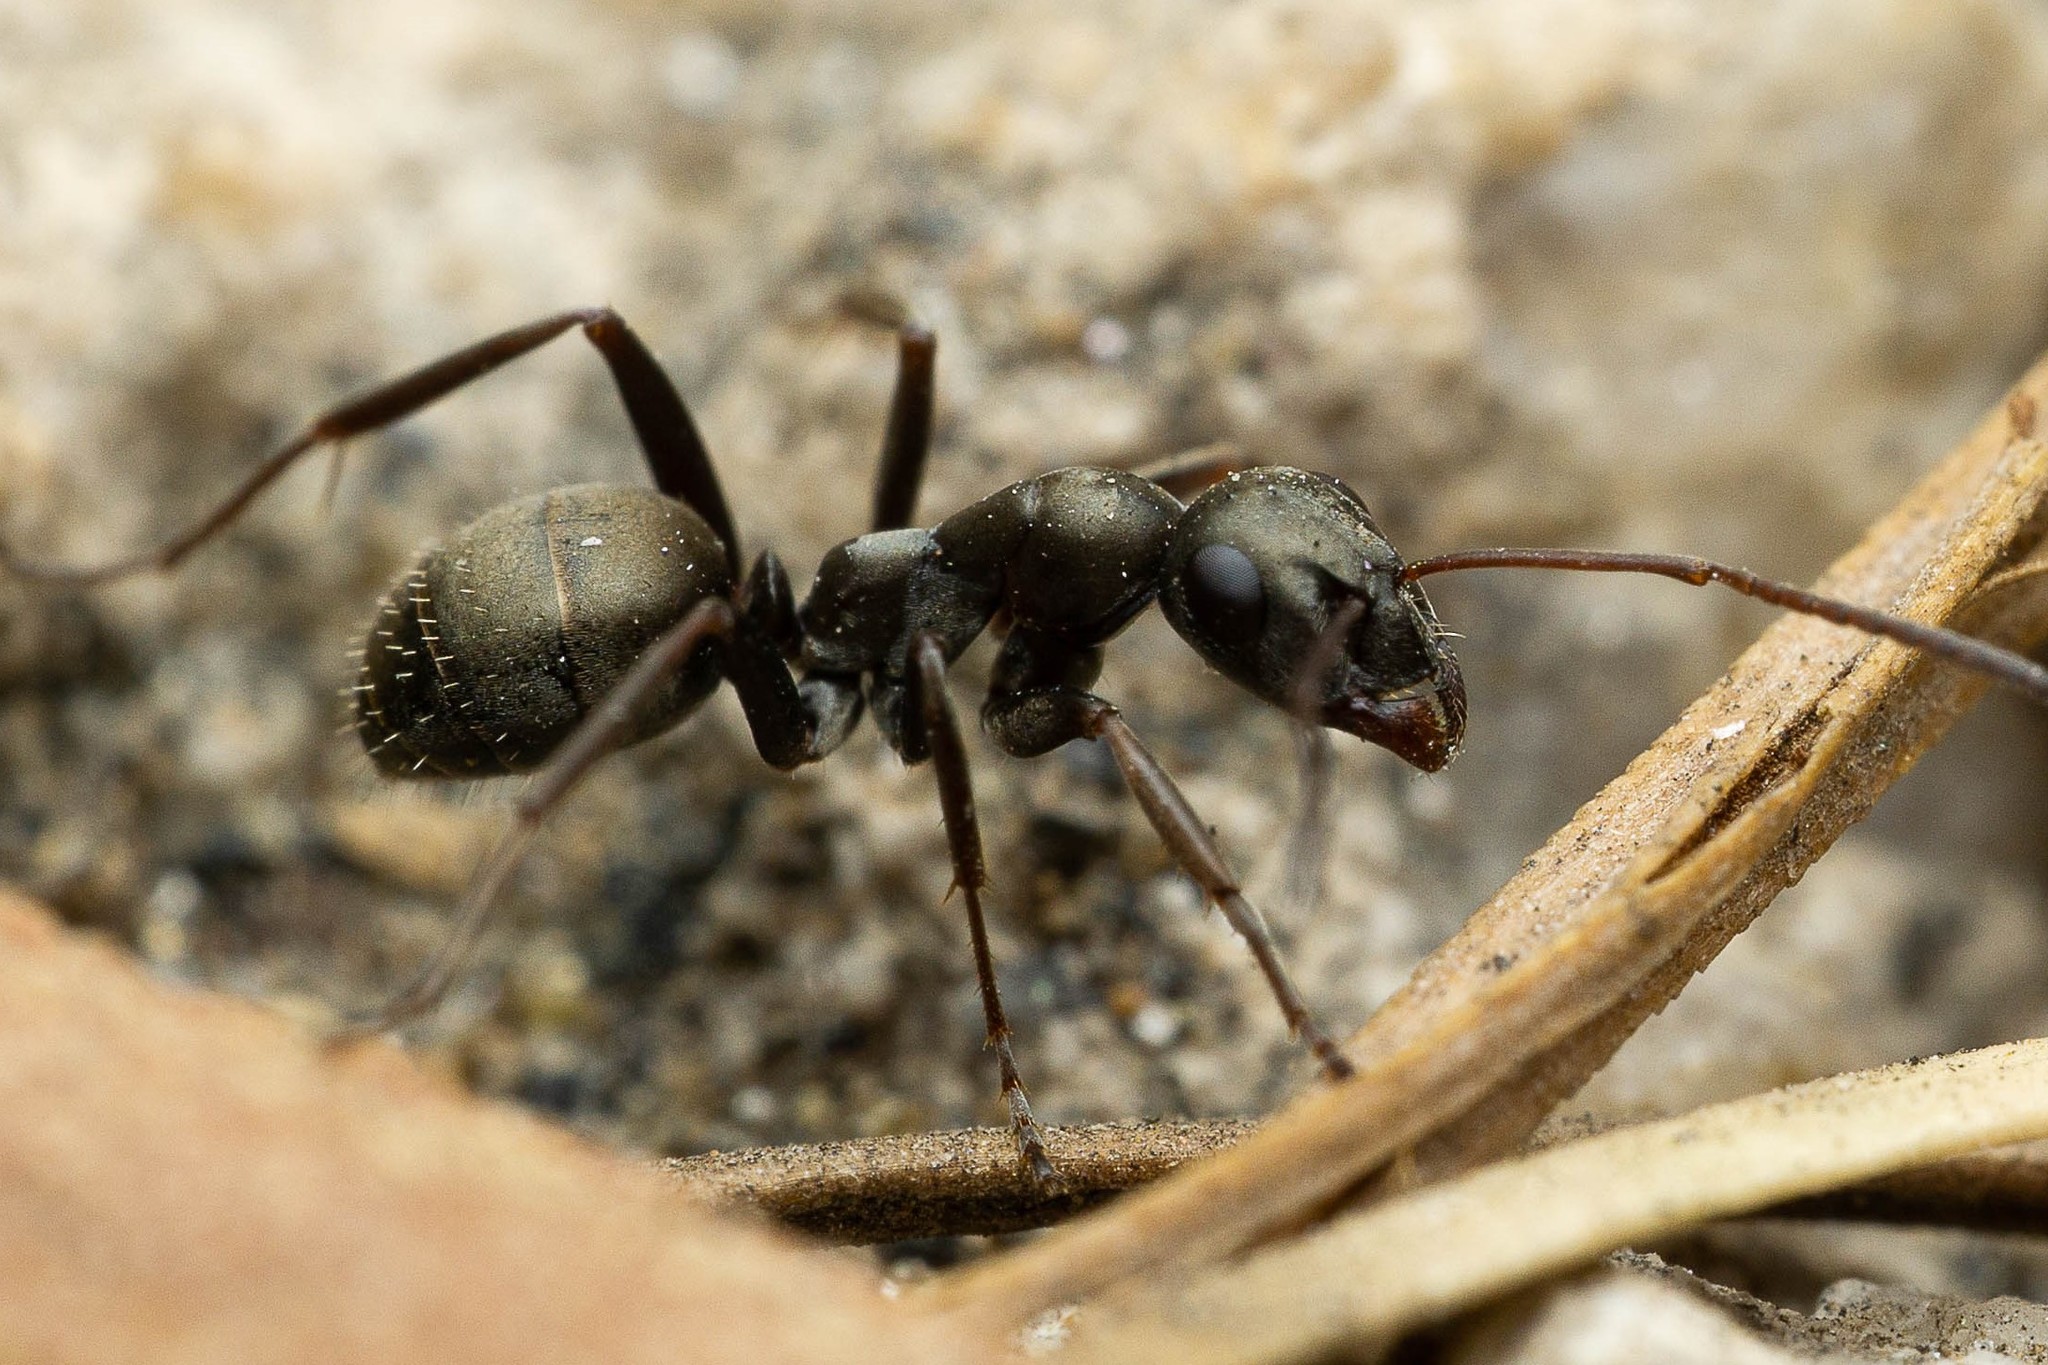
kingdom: Animalia
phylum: Arthropoda
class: Insecta
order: Hymenoptera
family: Formicidae
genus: Formica
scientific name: Formica occulta
